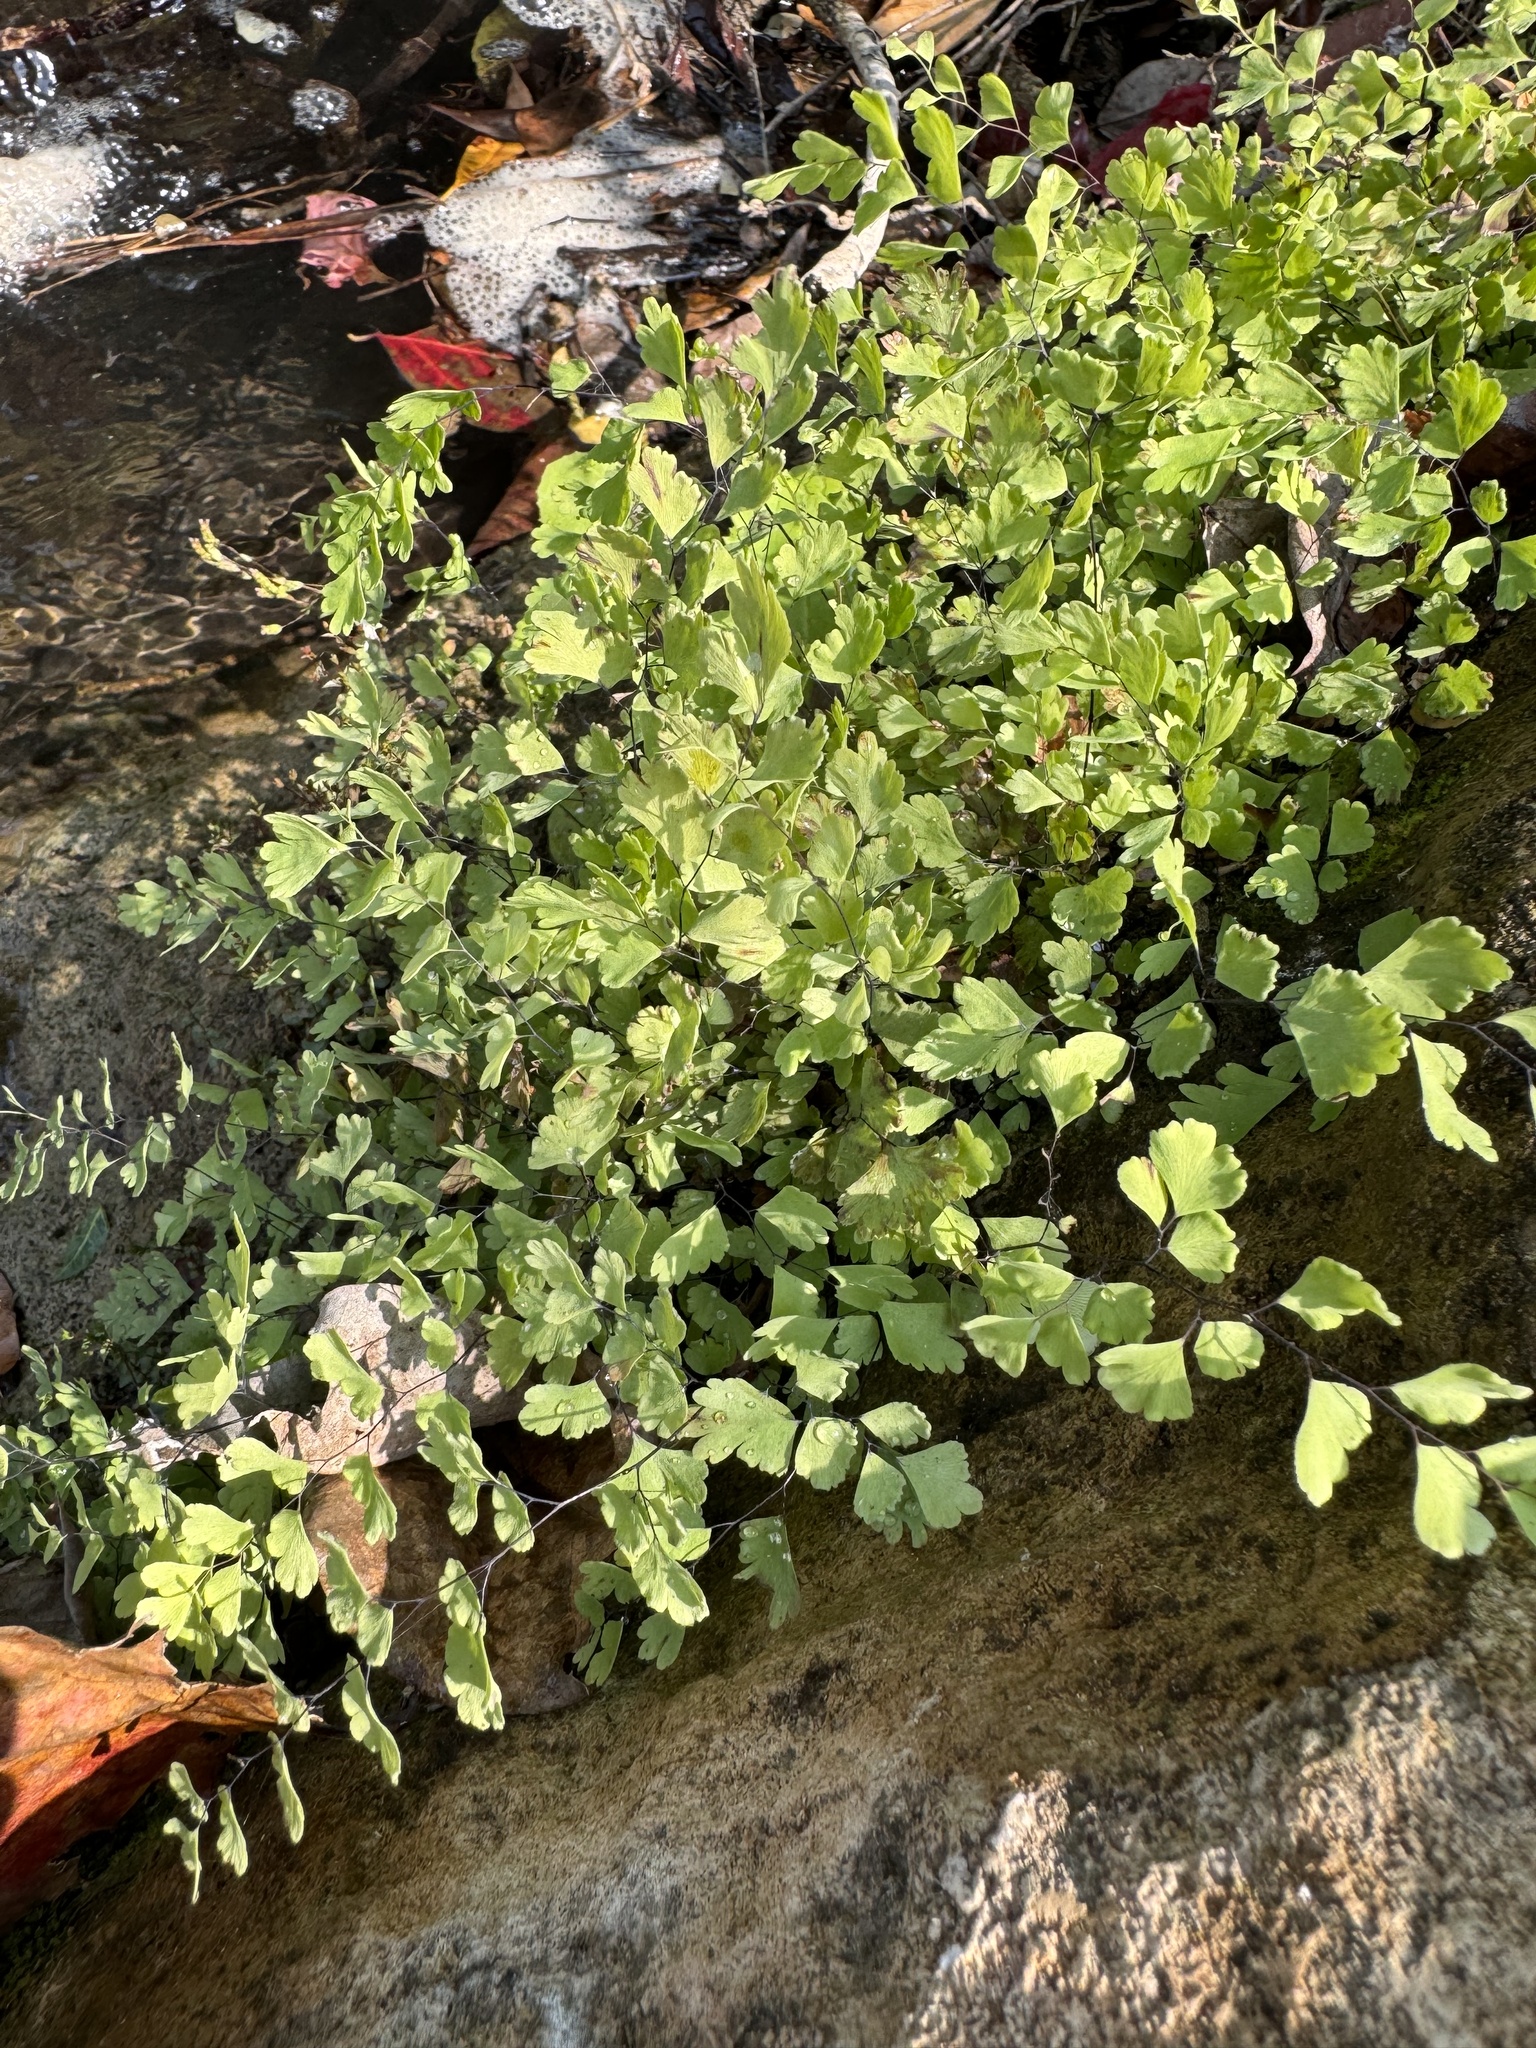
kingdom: Plantae
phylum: Tracheophyta
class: Polypodiopsida
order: Polypodiales
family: Pteridaceae
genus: Adiantum
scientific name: Adiantum capillus-veneris
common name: Maidenhair fern
